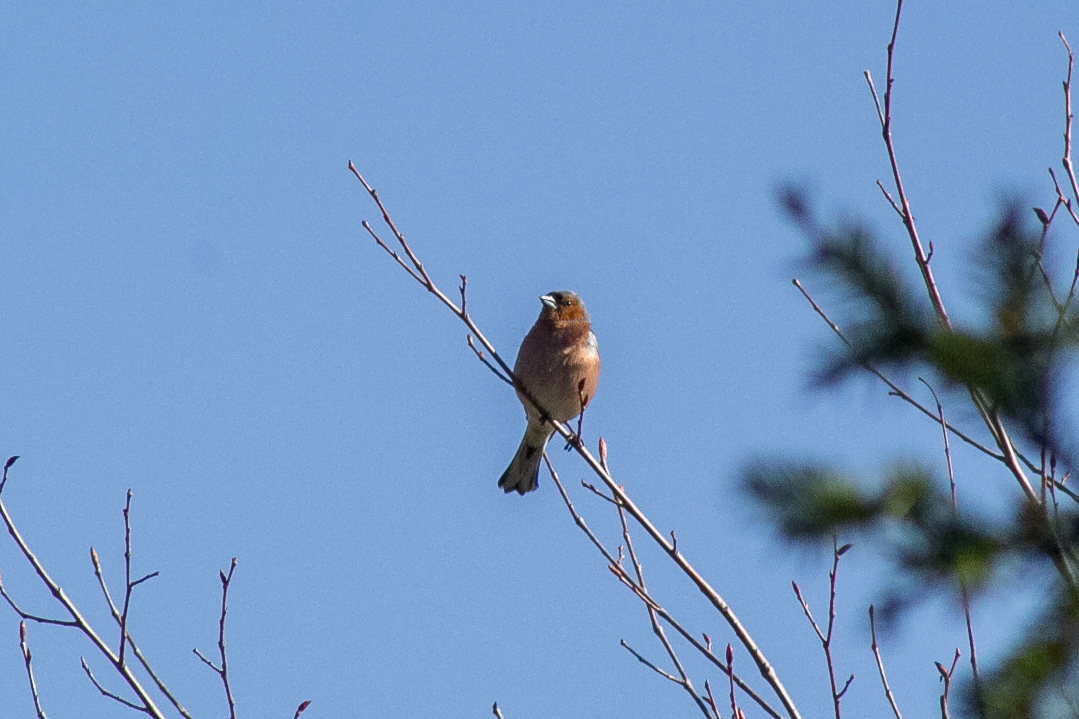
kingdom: Animalia
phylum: Chordata
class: Aves
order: Passeriformes
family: Fringillidae
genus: Fringilla
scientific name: Fringilla coelebs
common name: Common chaffinch
